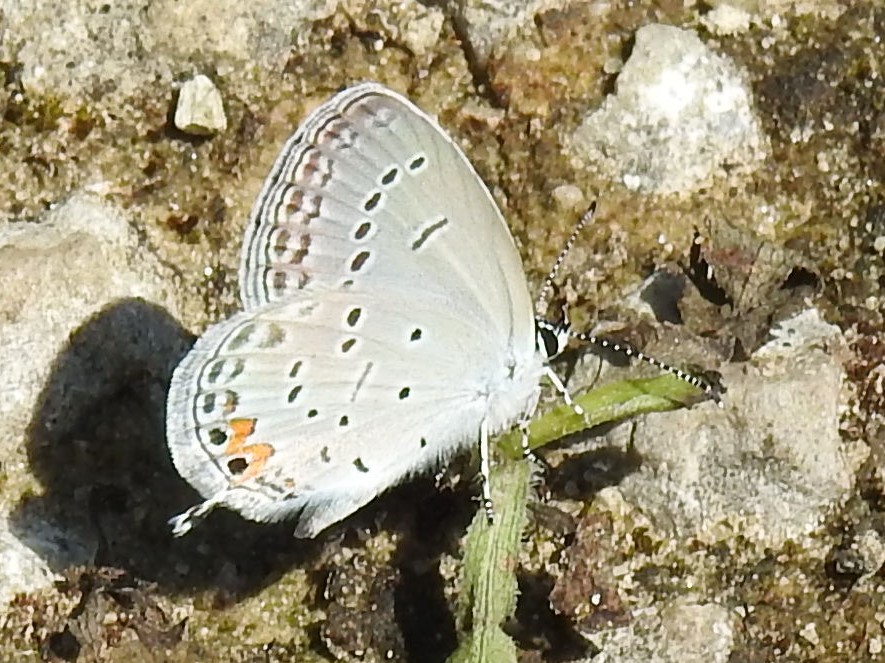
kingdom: Animalia
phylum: Arthropoda
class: Insecta
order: Lepidoptera
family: Lycaenidae
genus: Elkalyce
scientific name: Elkalyce comyntas
